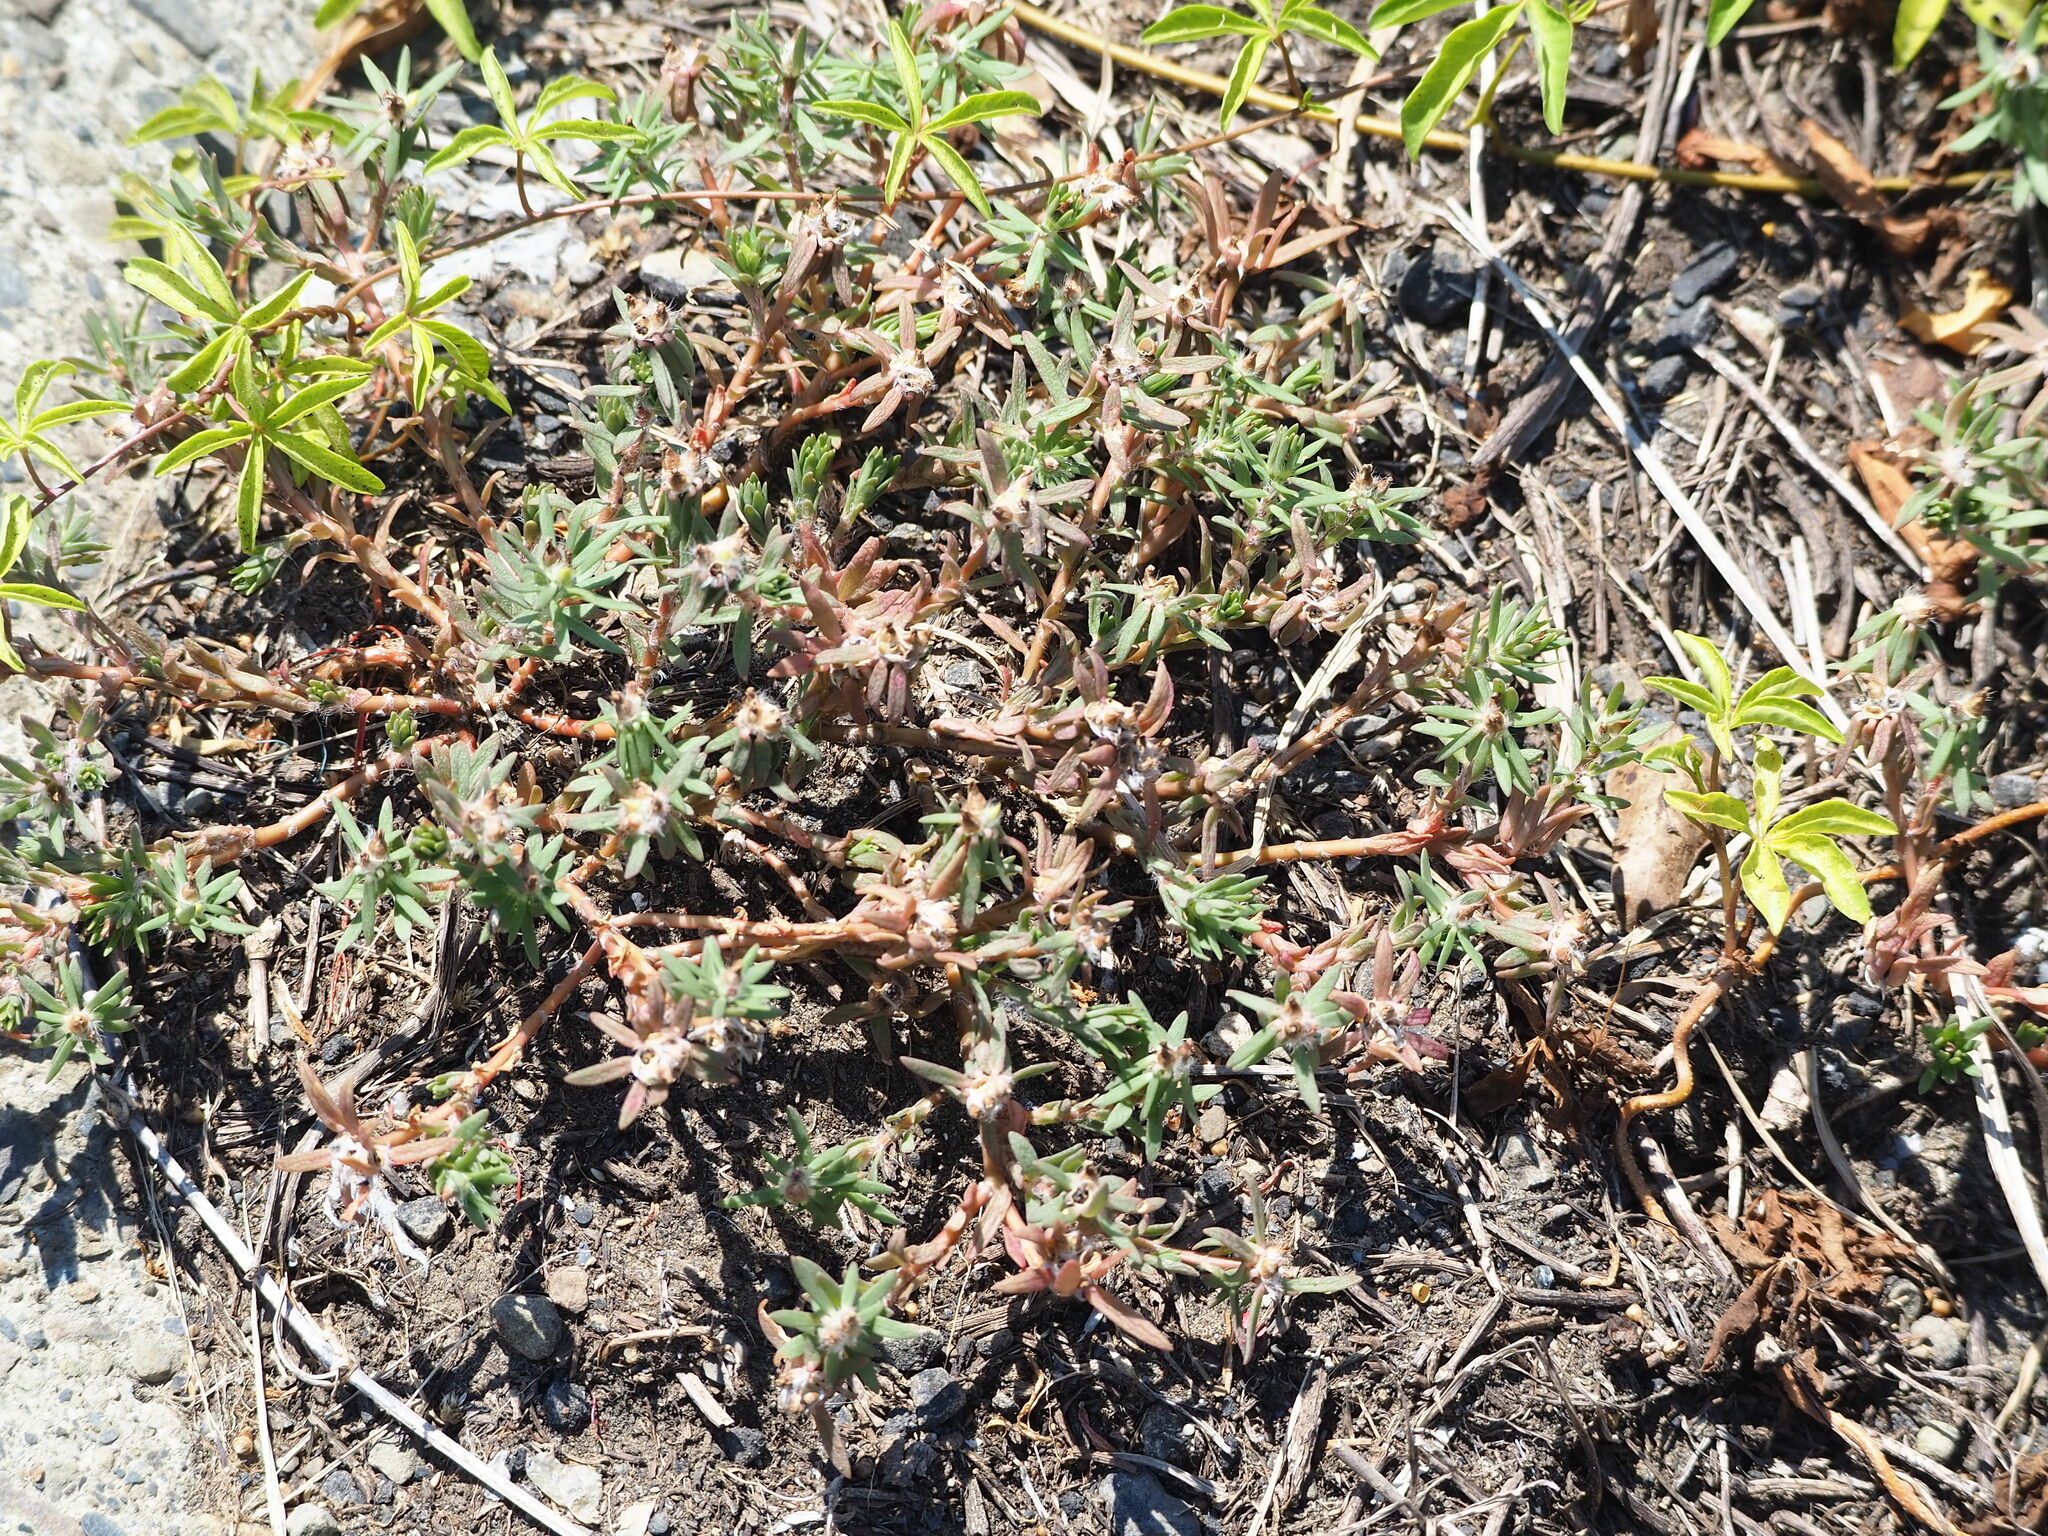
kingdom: Plantae
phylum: Tracheophyta
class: Magnoliopsida
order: Caryophyllales
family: Portulacaceae
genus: Portulaca
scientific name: Portulaca pilosa
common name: Kiss me quick
